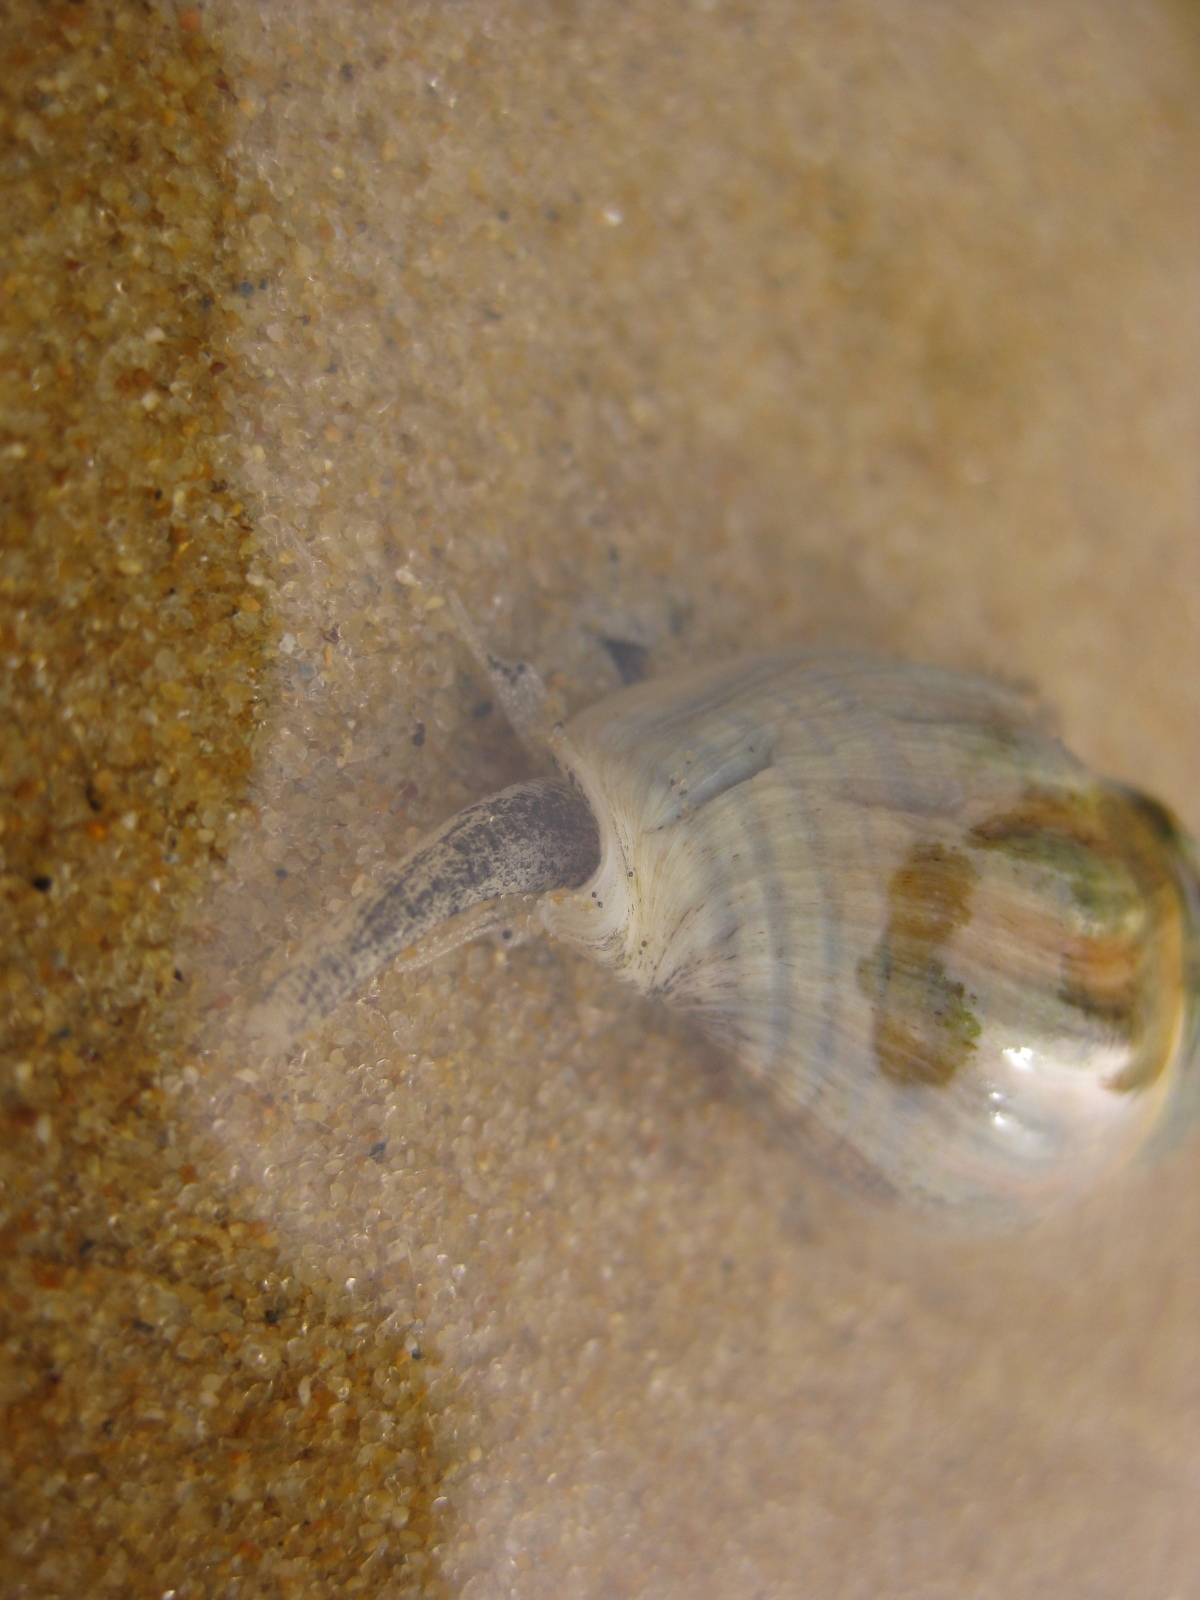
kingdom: Animalia
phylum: Mollusca
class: Gastropoda
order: Neogastropoda
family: Cominellidae
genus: Cominella
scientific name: Cominella glandiformis
